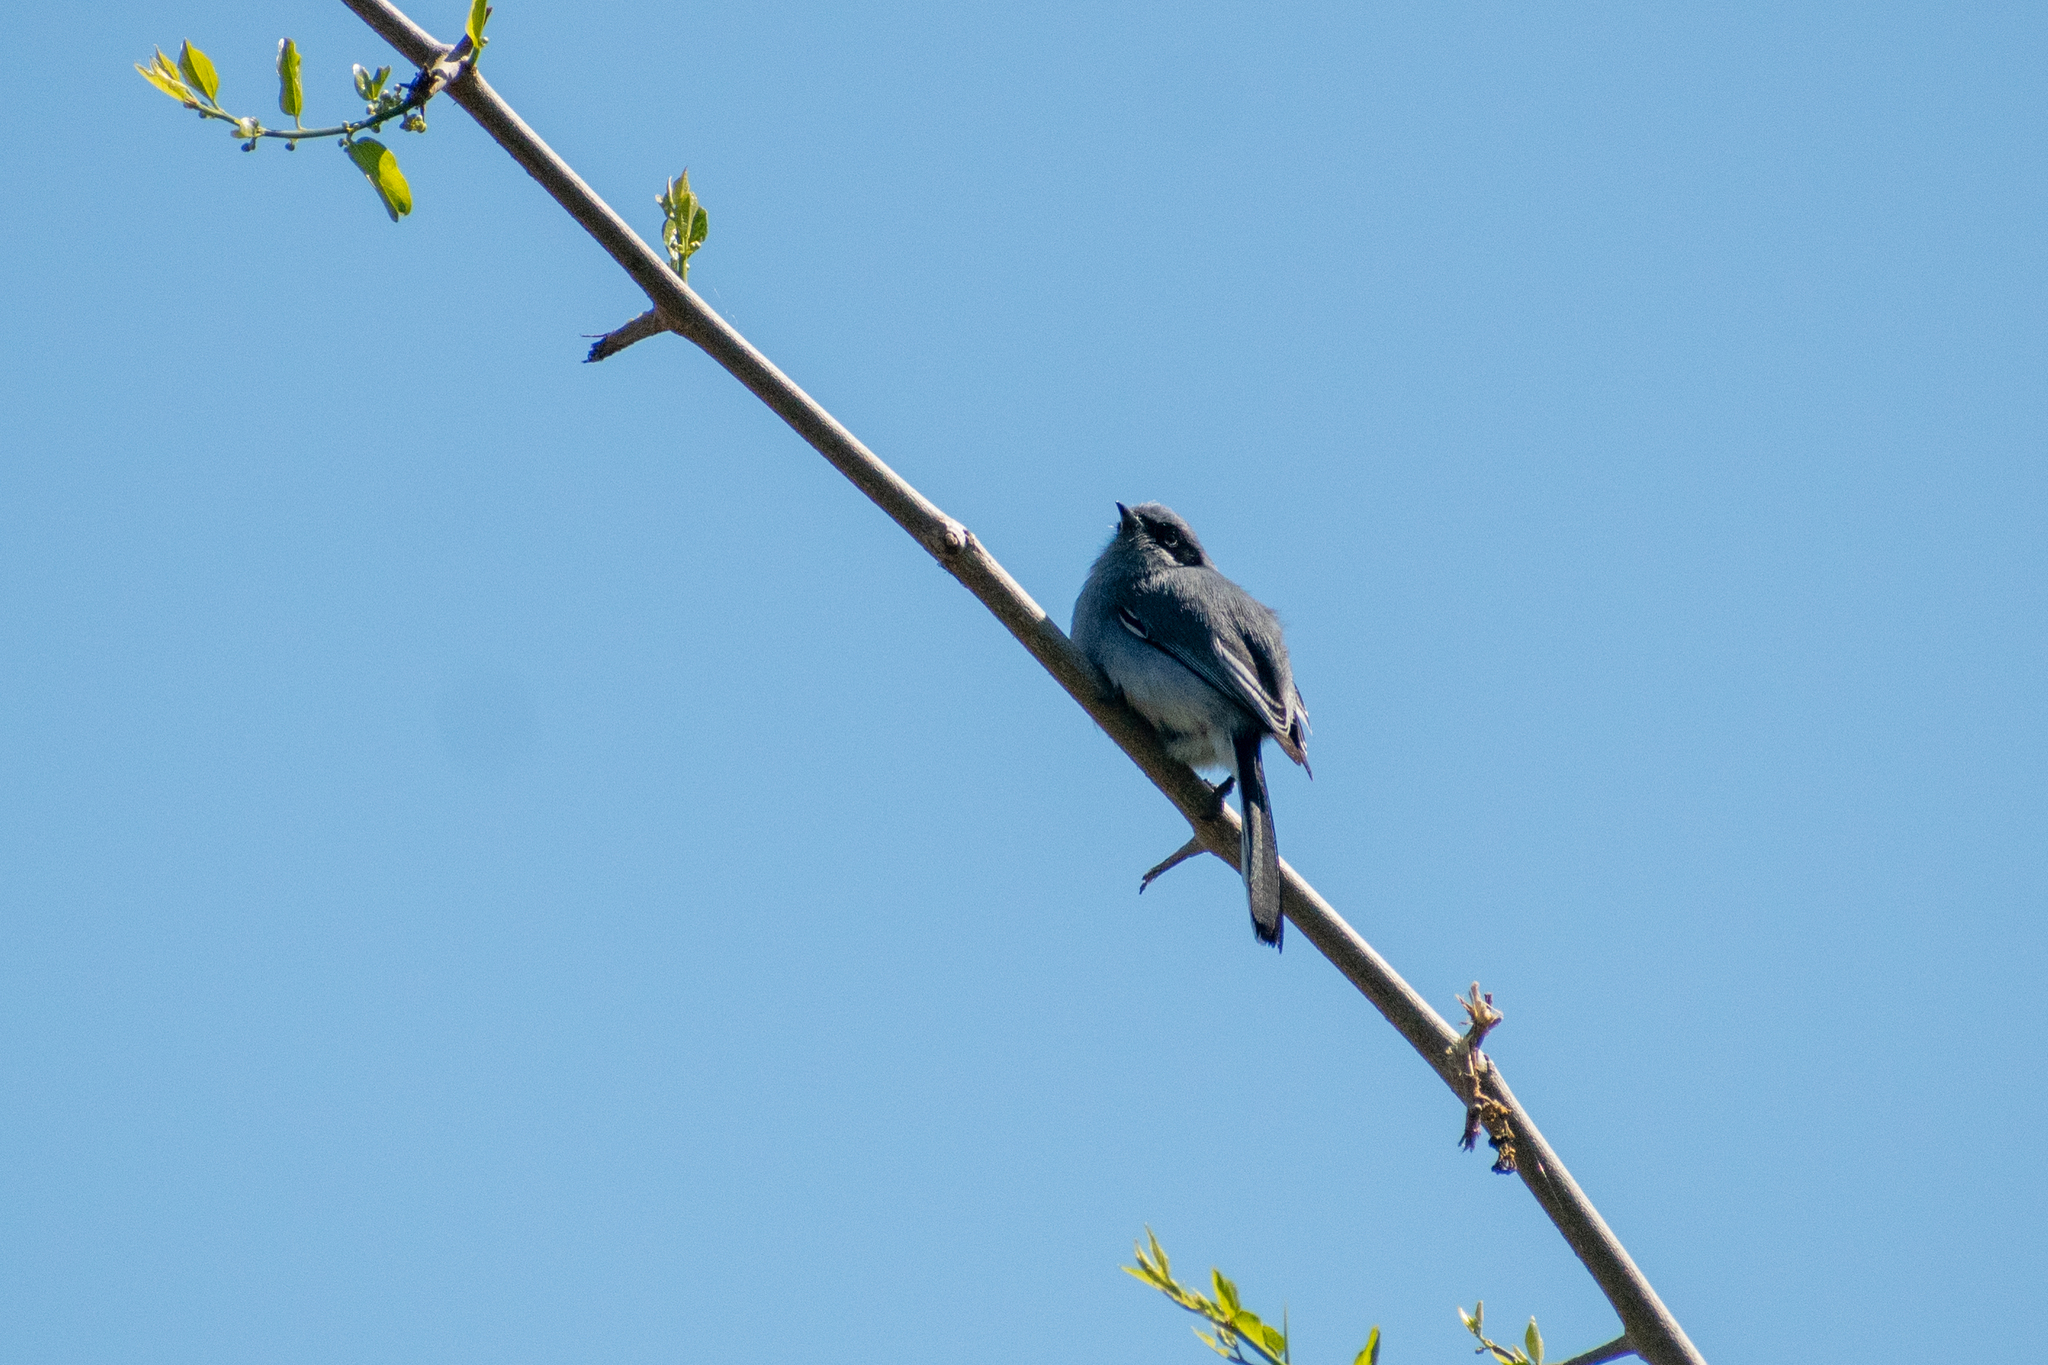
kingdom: Animalia
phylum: Chordata
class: Aves
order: Passeriformes
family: Polioptilidae
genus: Polioptila
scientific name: Polioptila dumicola
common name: Masked gnatcatcher
